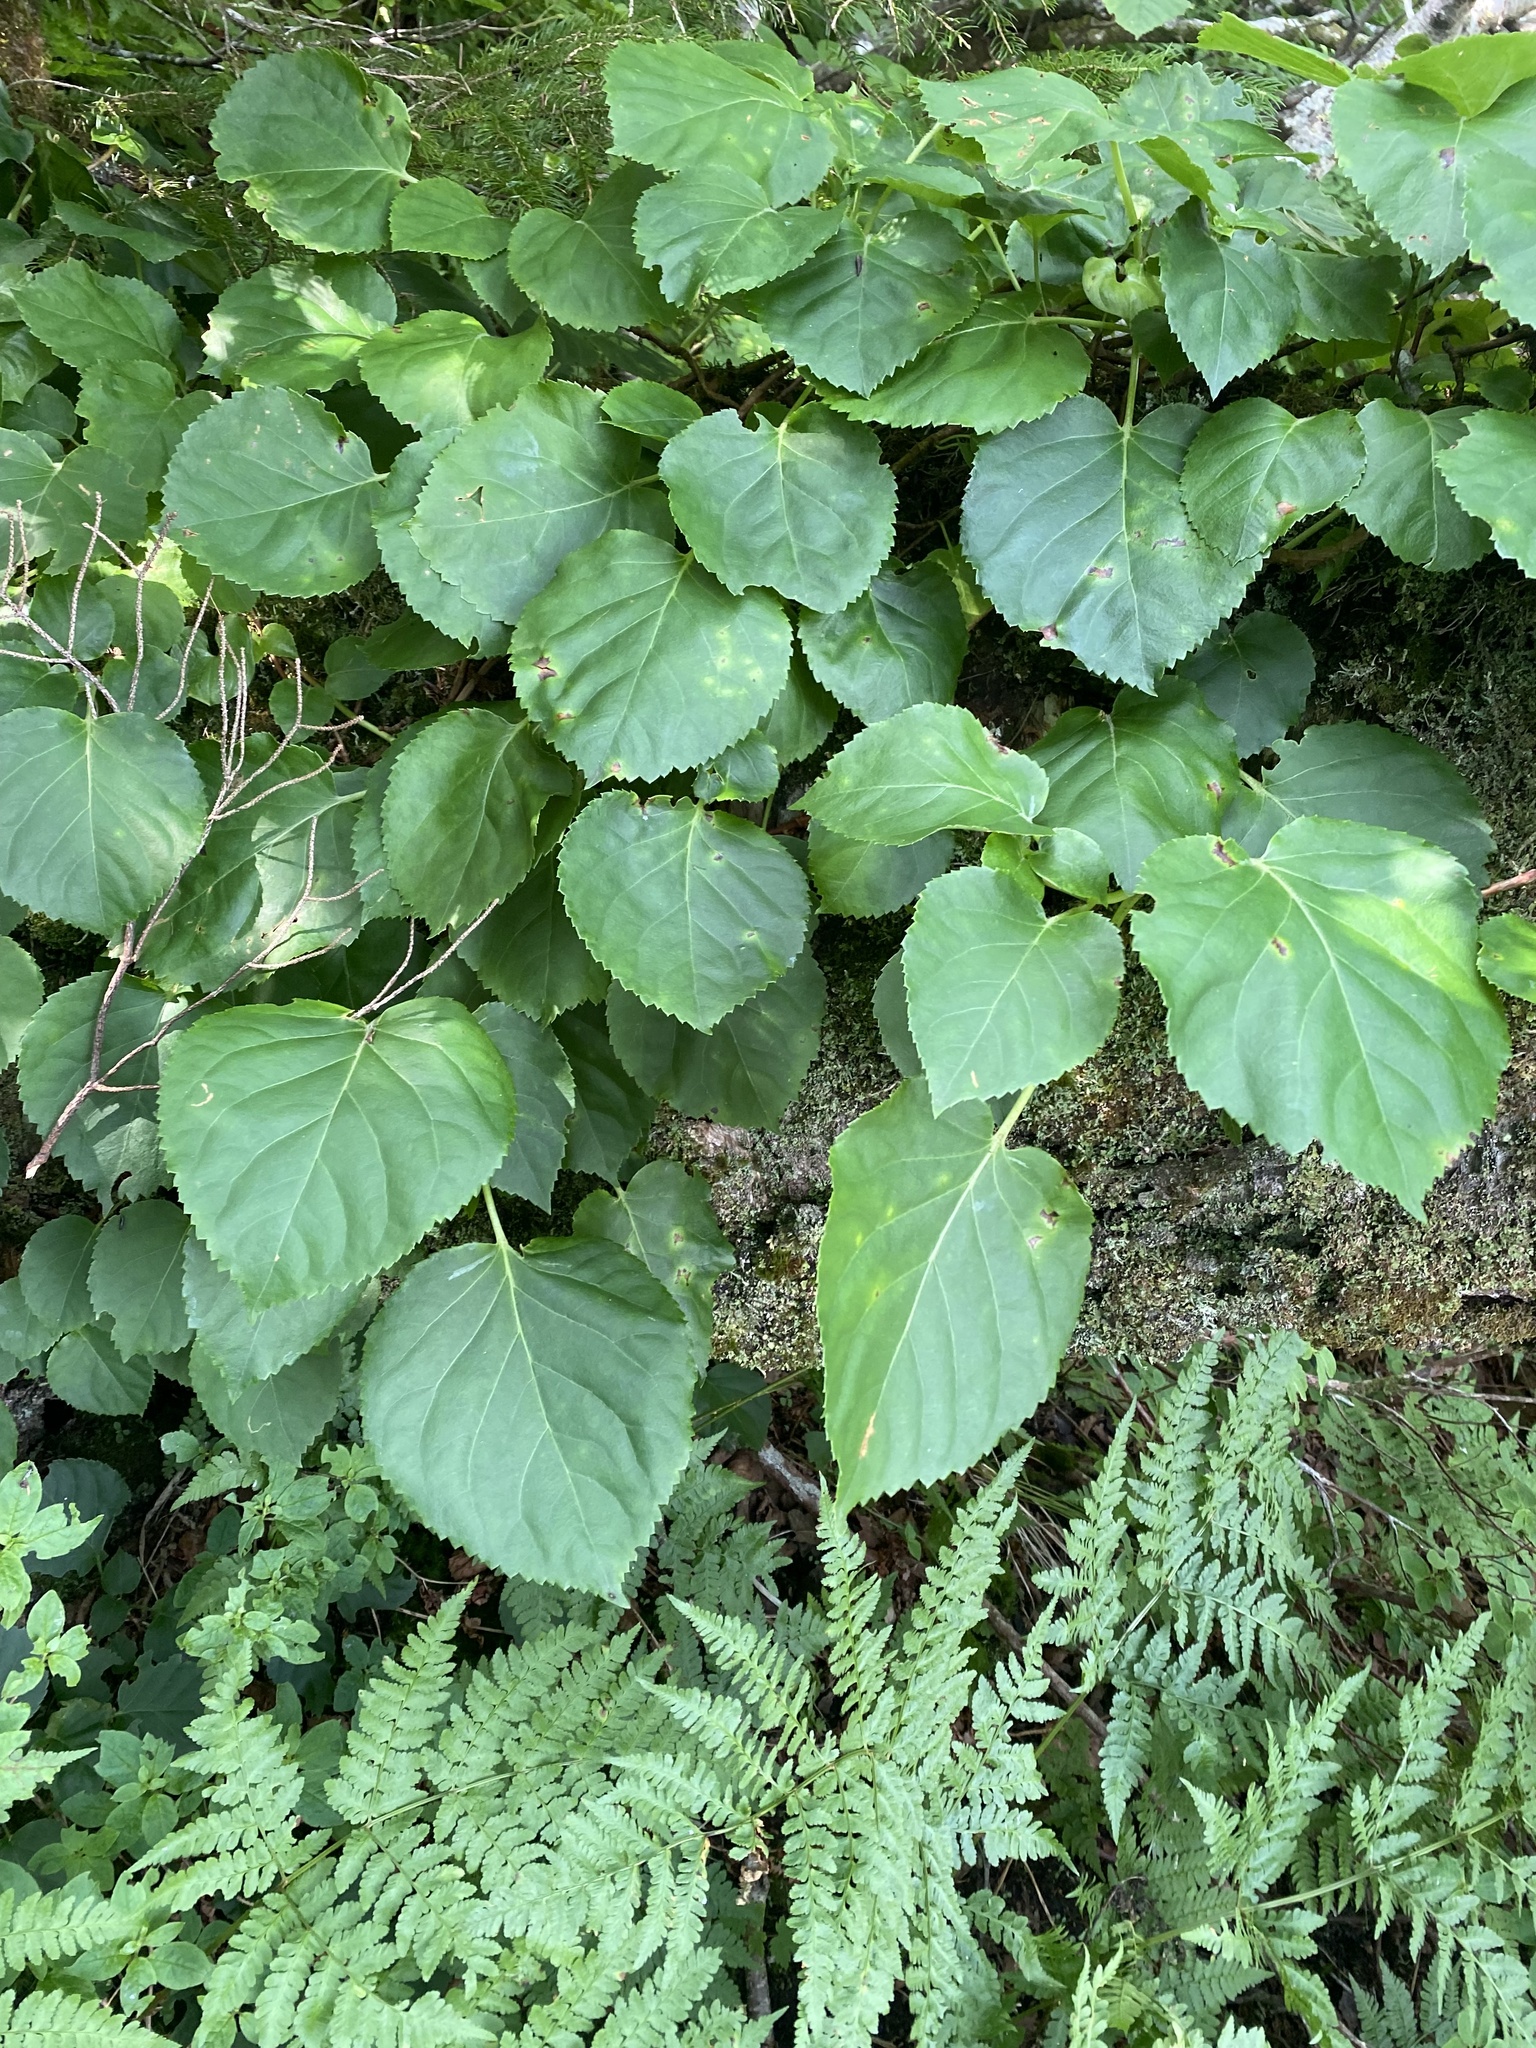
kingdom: Plantae
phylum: Tracheophyta
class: Magnoliopsida
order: Cornales
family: Hydrangeaceae
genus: Hydrangea
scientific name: Hydrangea petiolaris
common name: Japanese climbing hydrangea
